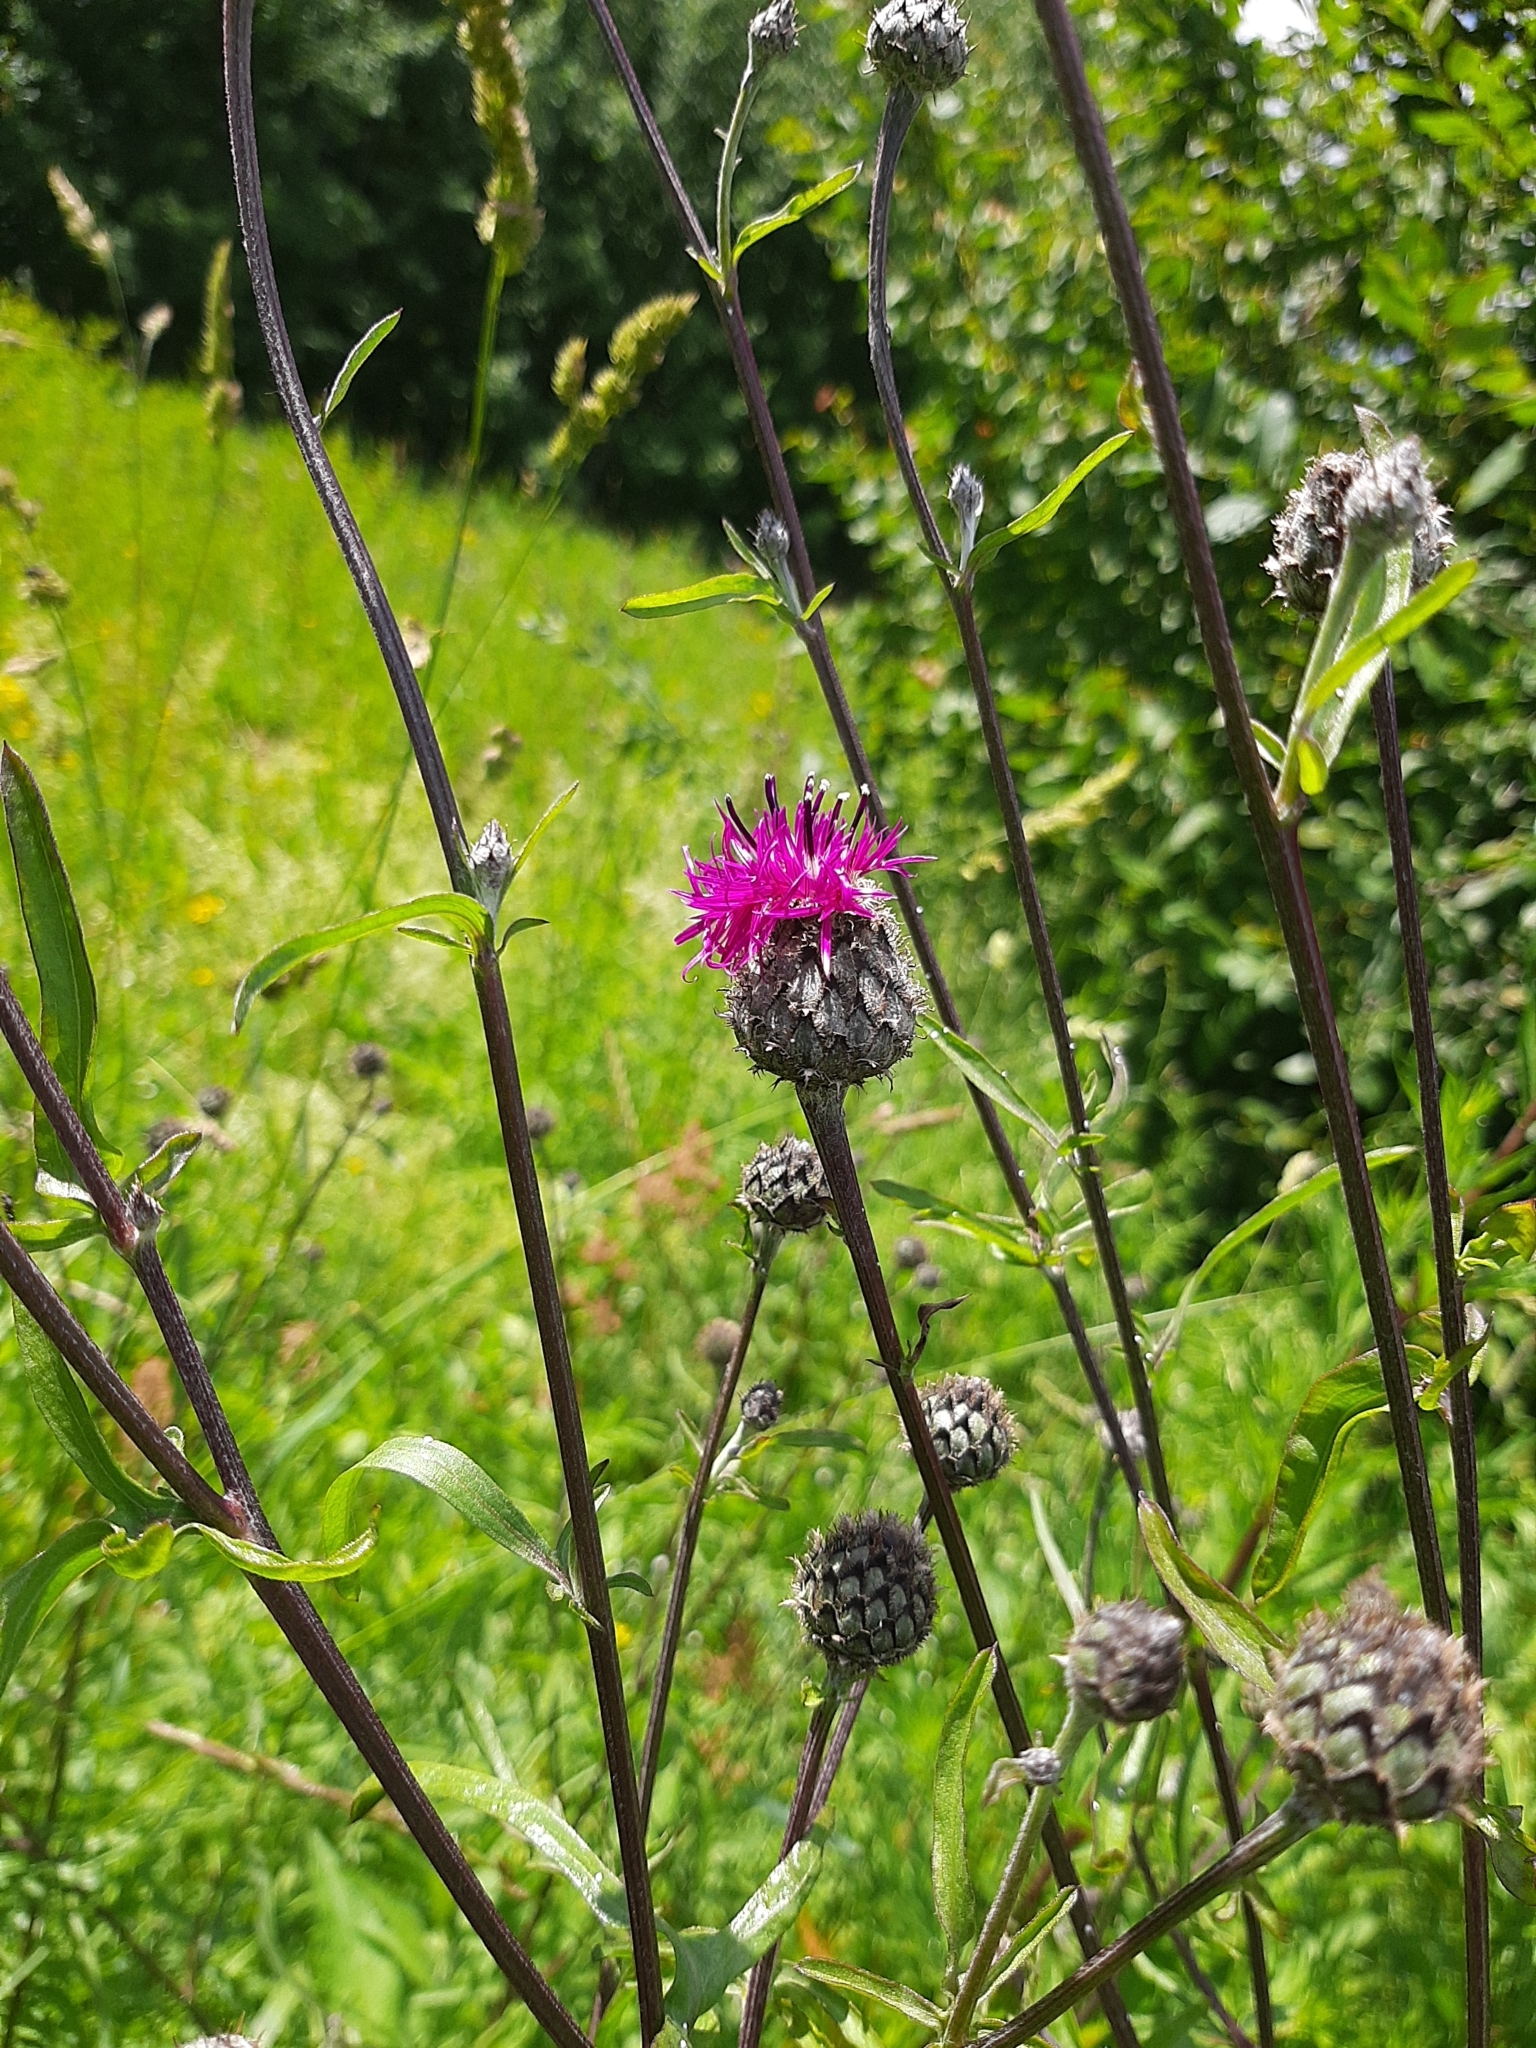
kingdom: Plantae
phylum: Tracheophyta
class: Magnoliopsida
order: Asterales
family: Asteraceae
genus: Centaurea
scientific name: Centaurea scabiosa
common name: Greater knapweed
